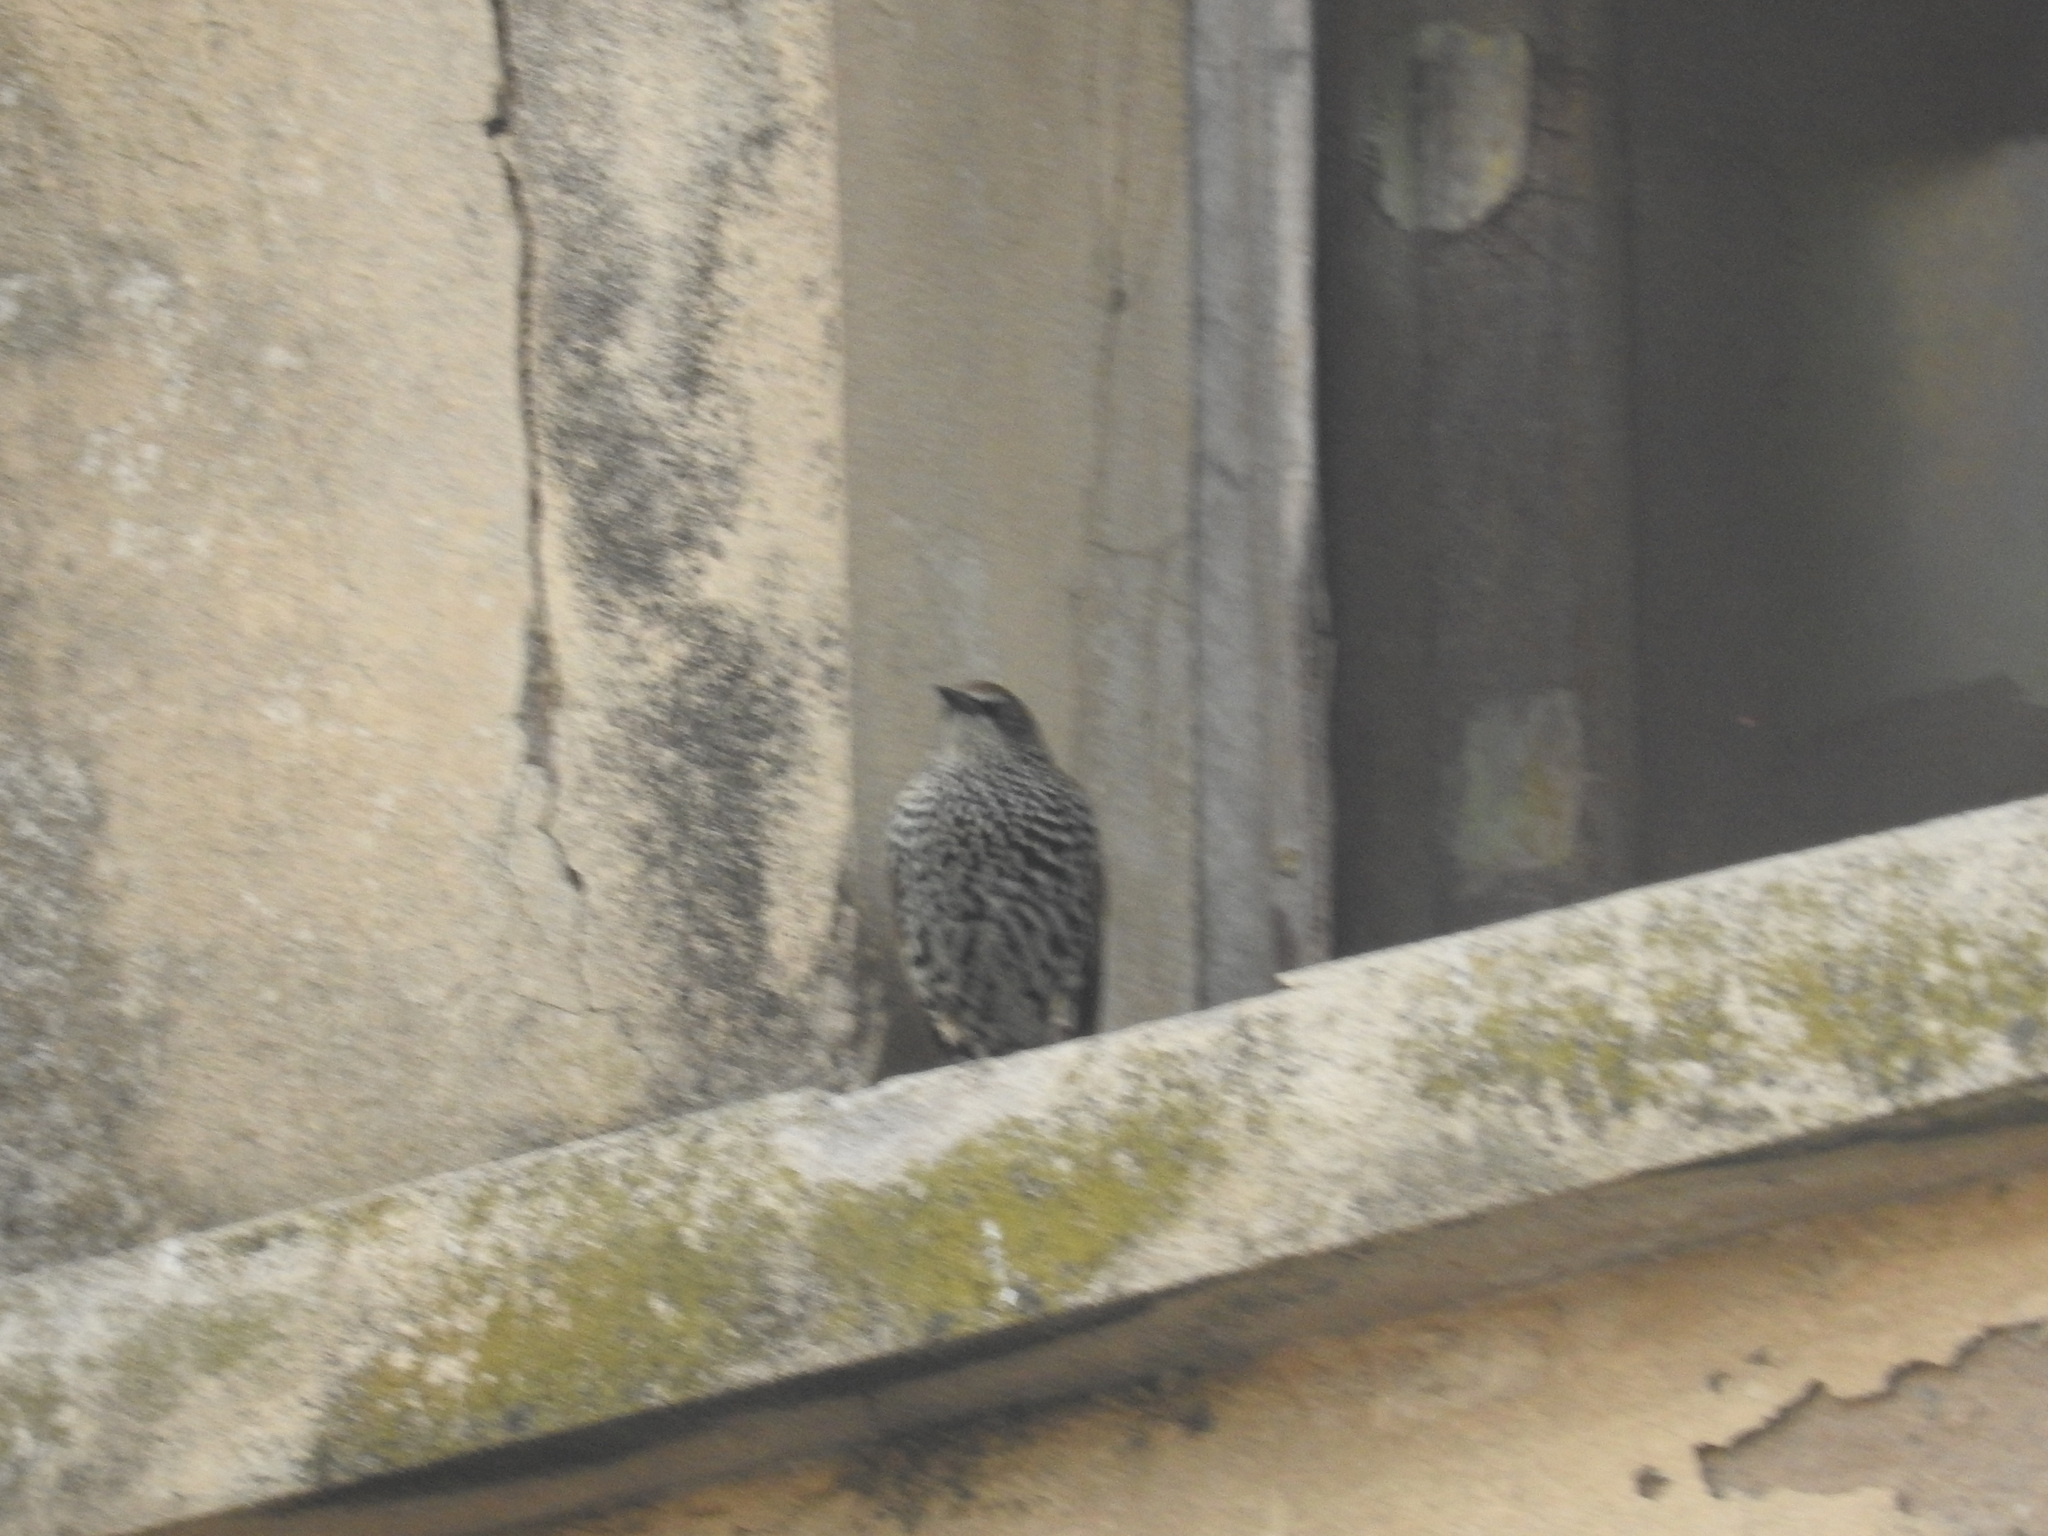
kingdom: Animalia
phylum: Chordata
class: Aves
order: Passeriformes
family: Sturnidae
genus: Sturnus
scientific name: Sturnus vulgaris
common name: Common starling
